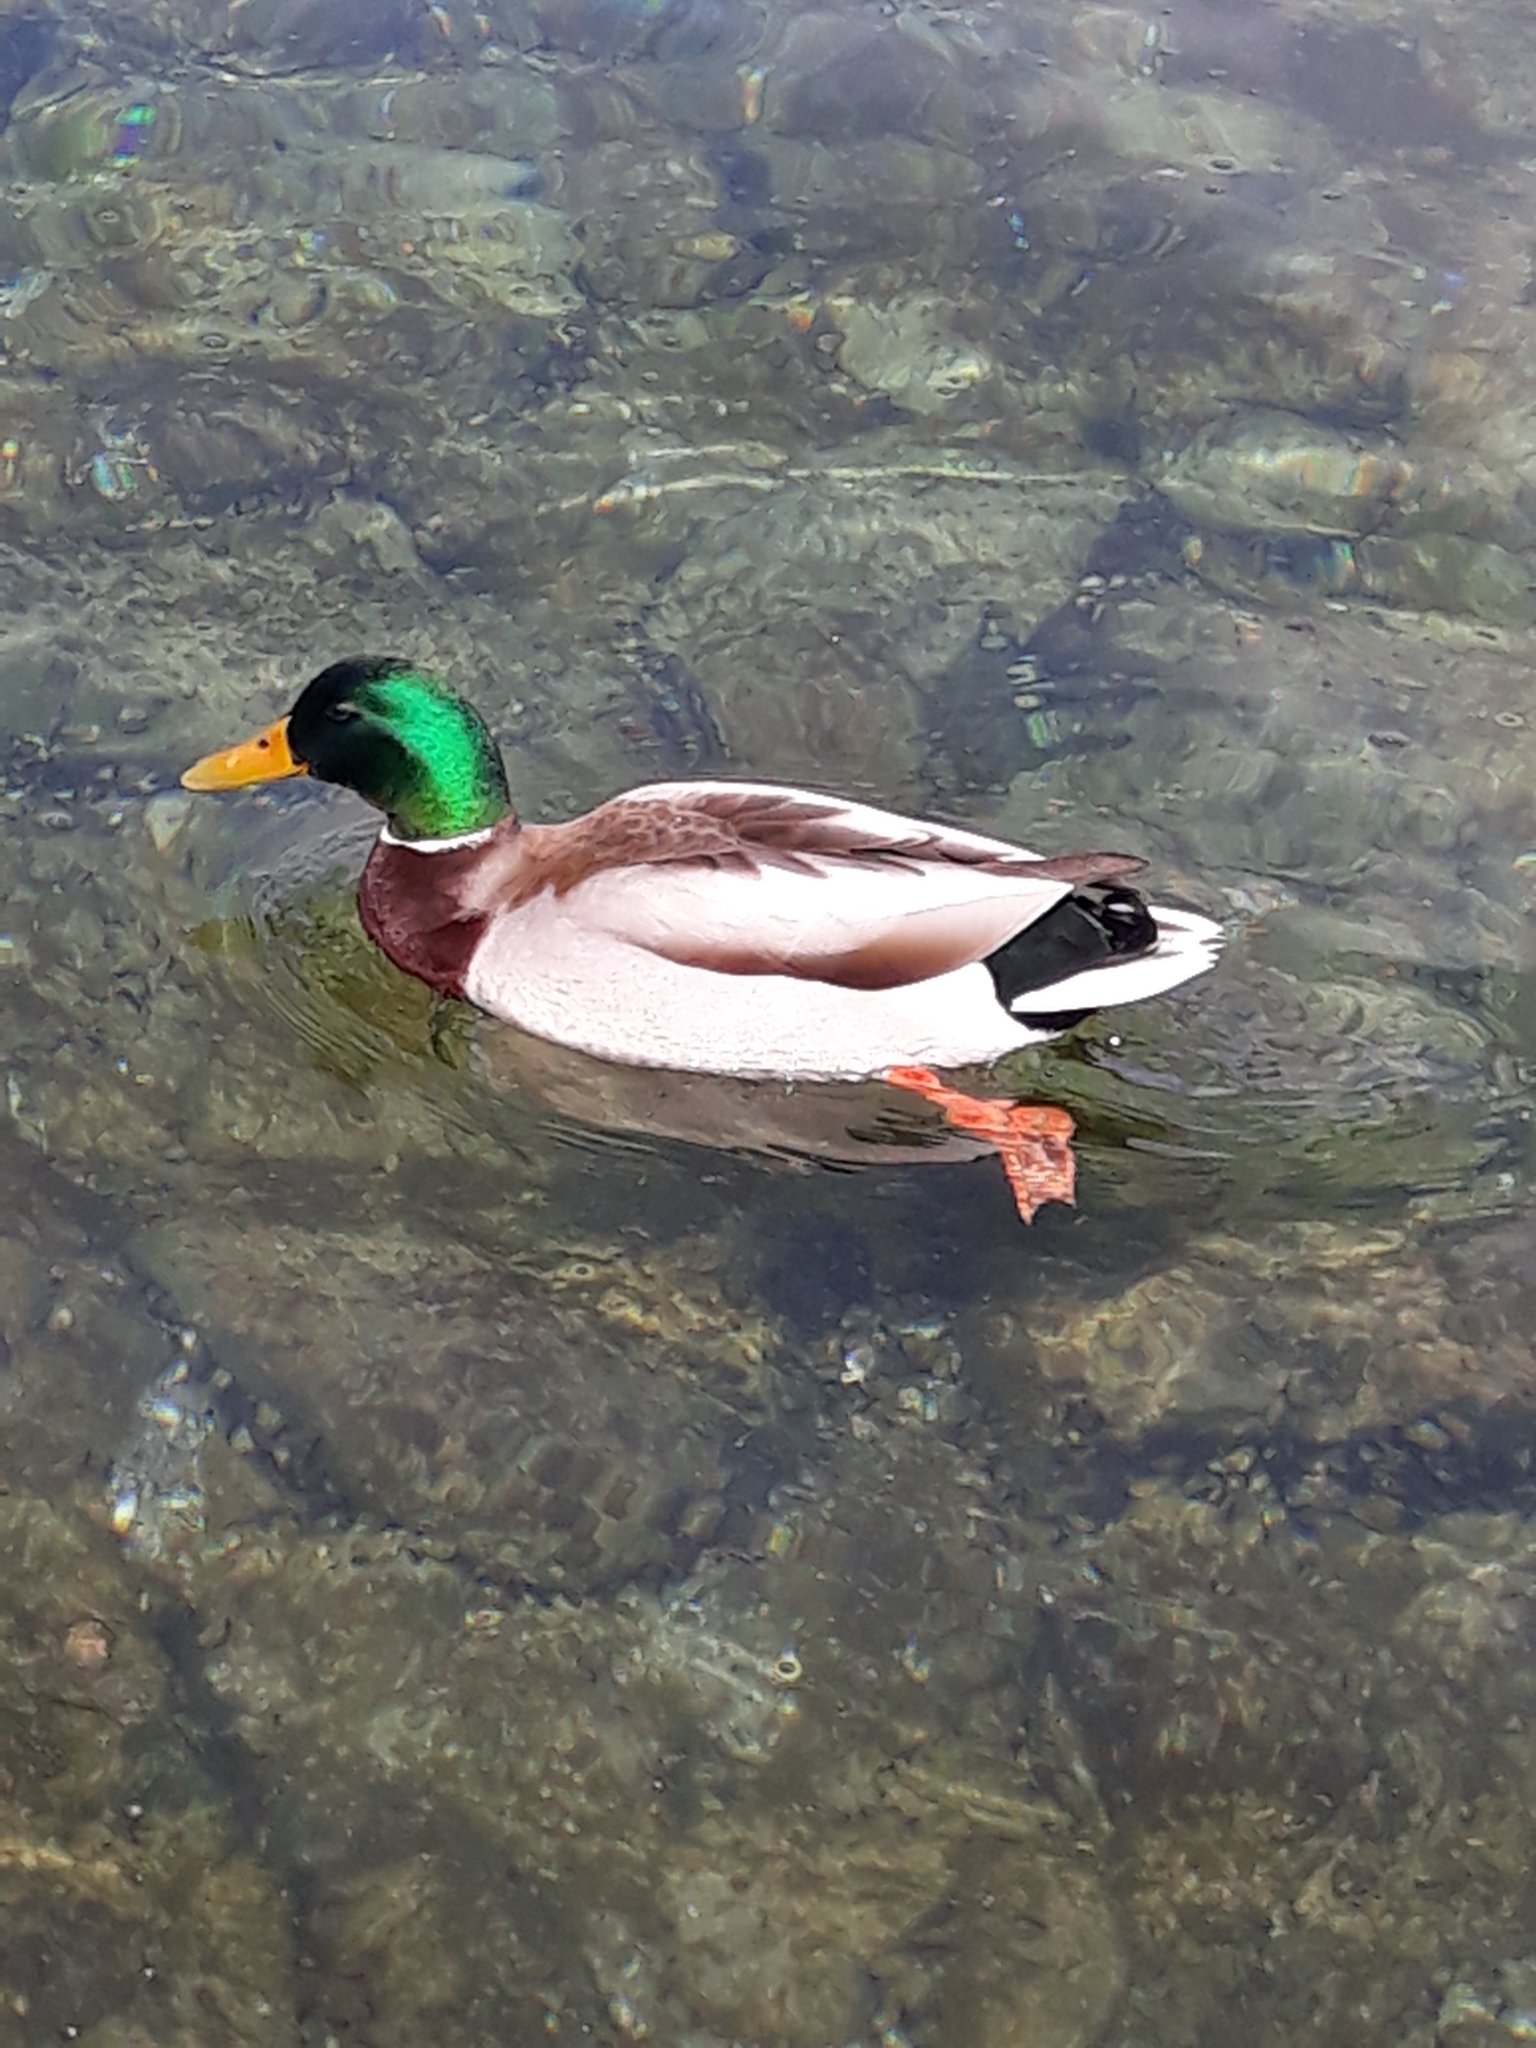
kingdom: Animalia
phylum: Chordata
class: Aves
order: Anseriformes
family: Anatidae
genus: Anas
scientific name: Anas platyrhynchos
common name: Mallard
